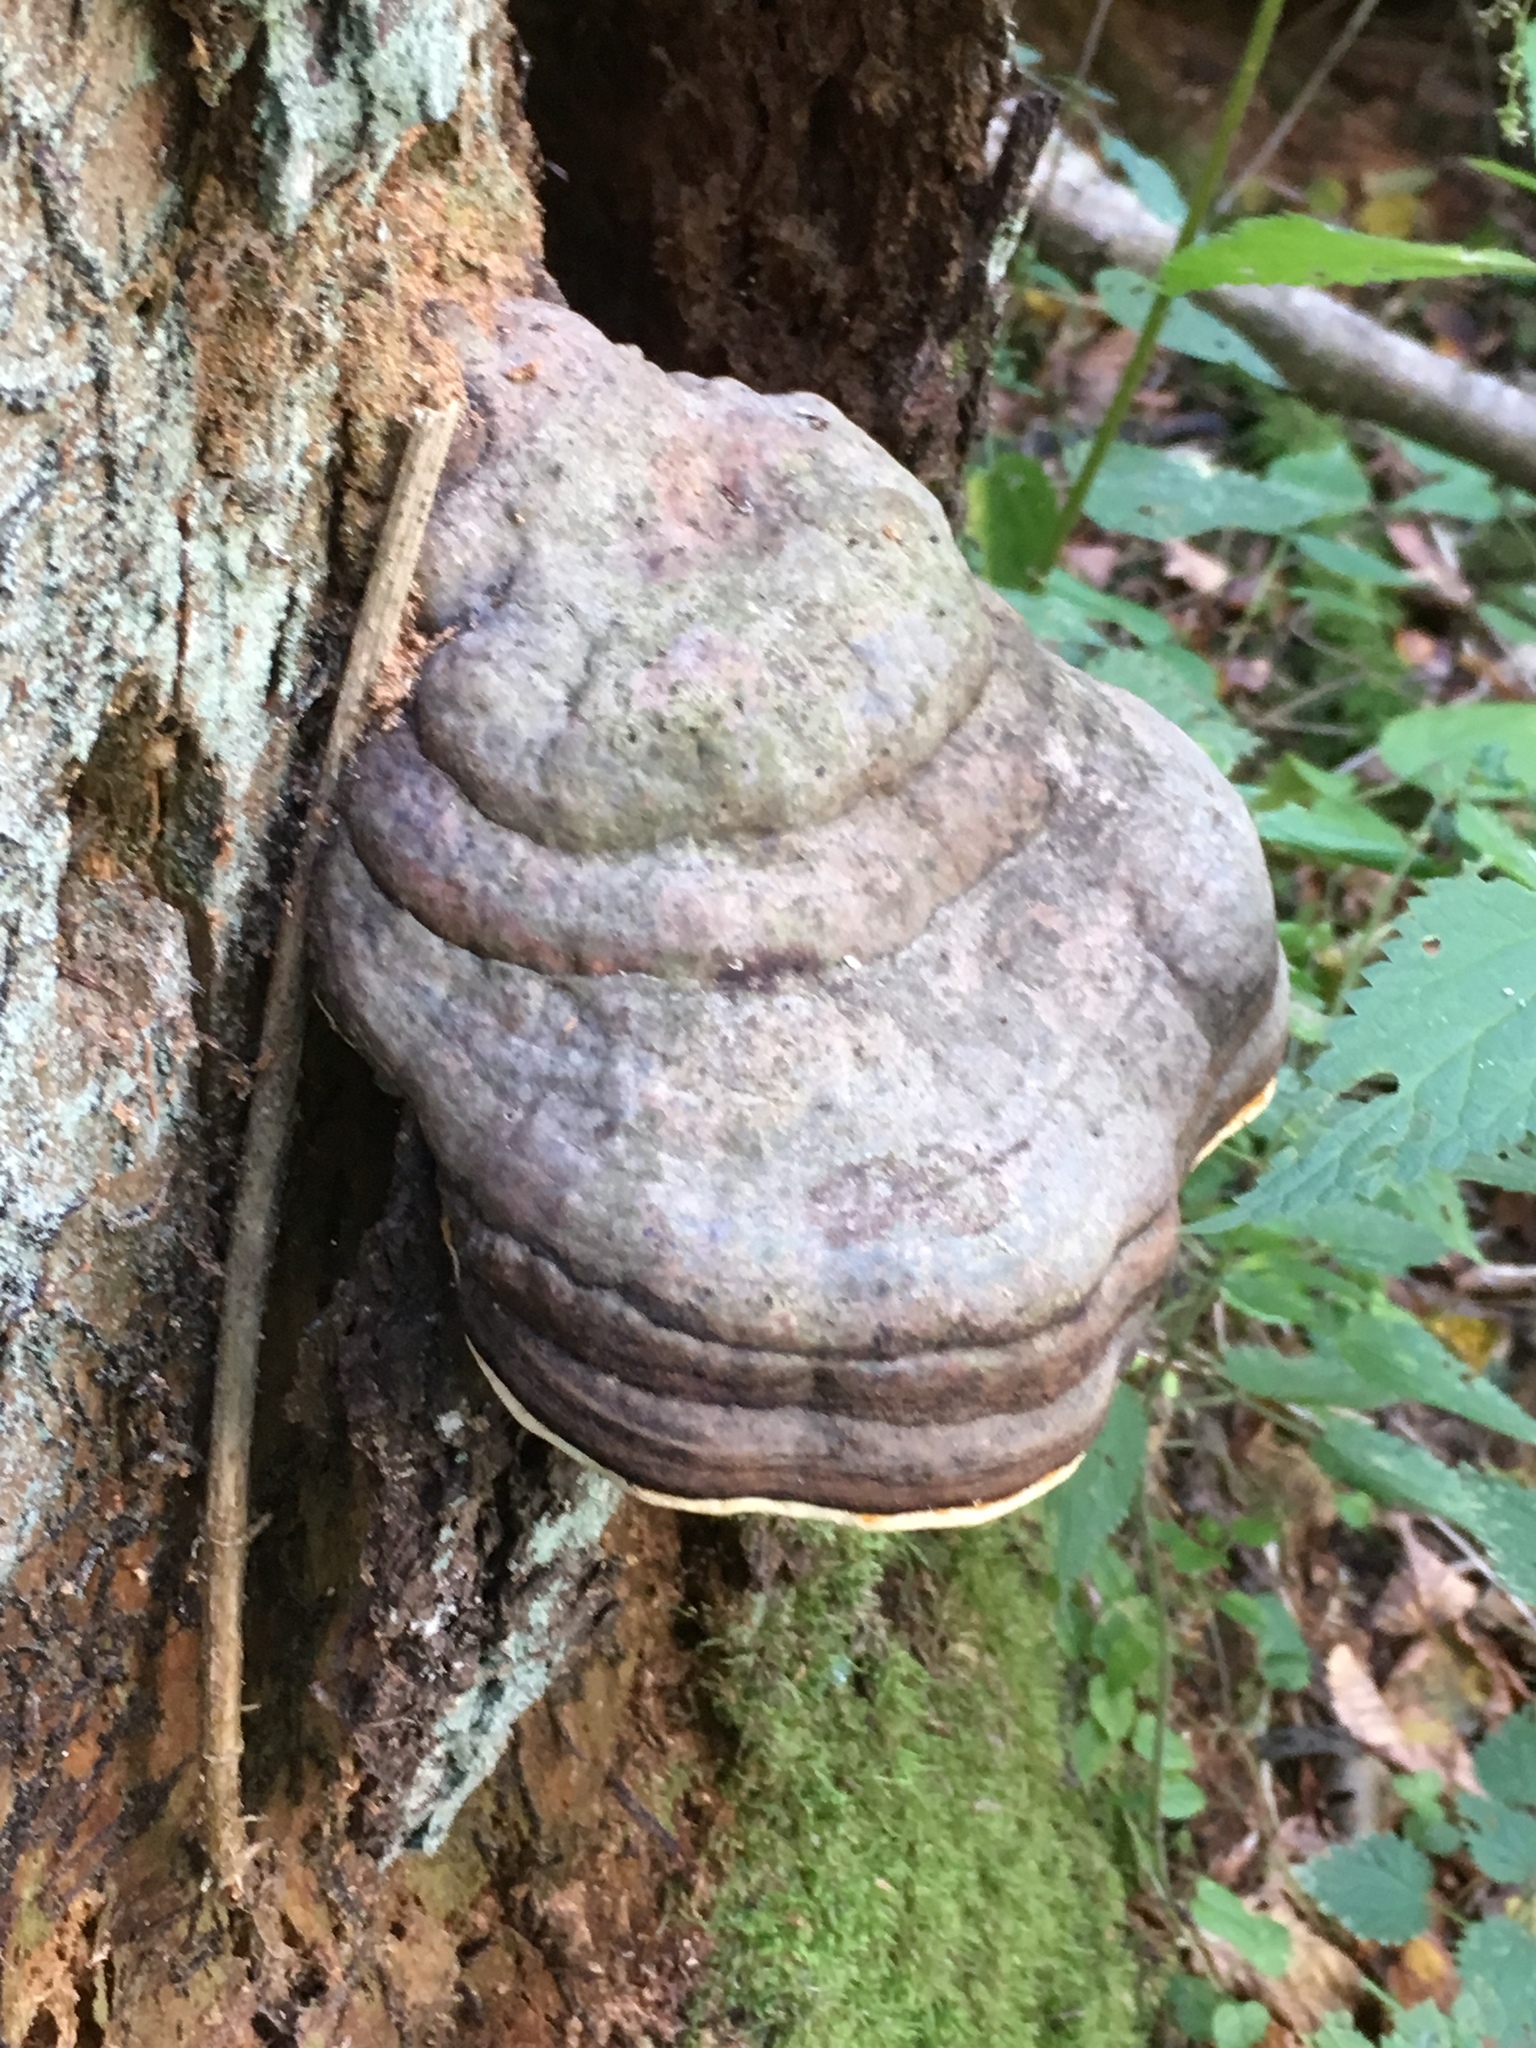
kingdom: Fungi
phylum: Basidiomycota
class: Agaricomycetes
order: Polyporales
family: Fomitopsidaceae
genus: Fomitopsis
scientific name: Fomitopsis pinicola
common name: Red-belted bracket
